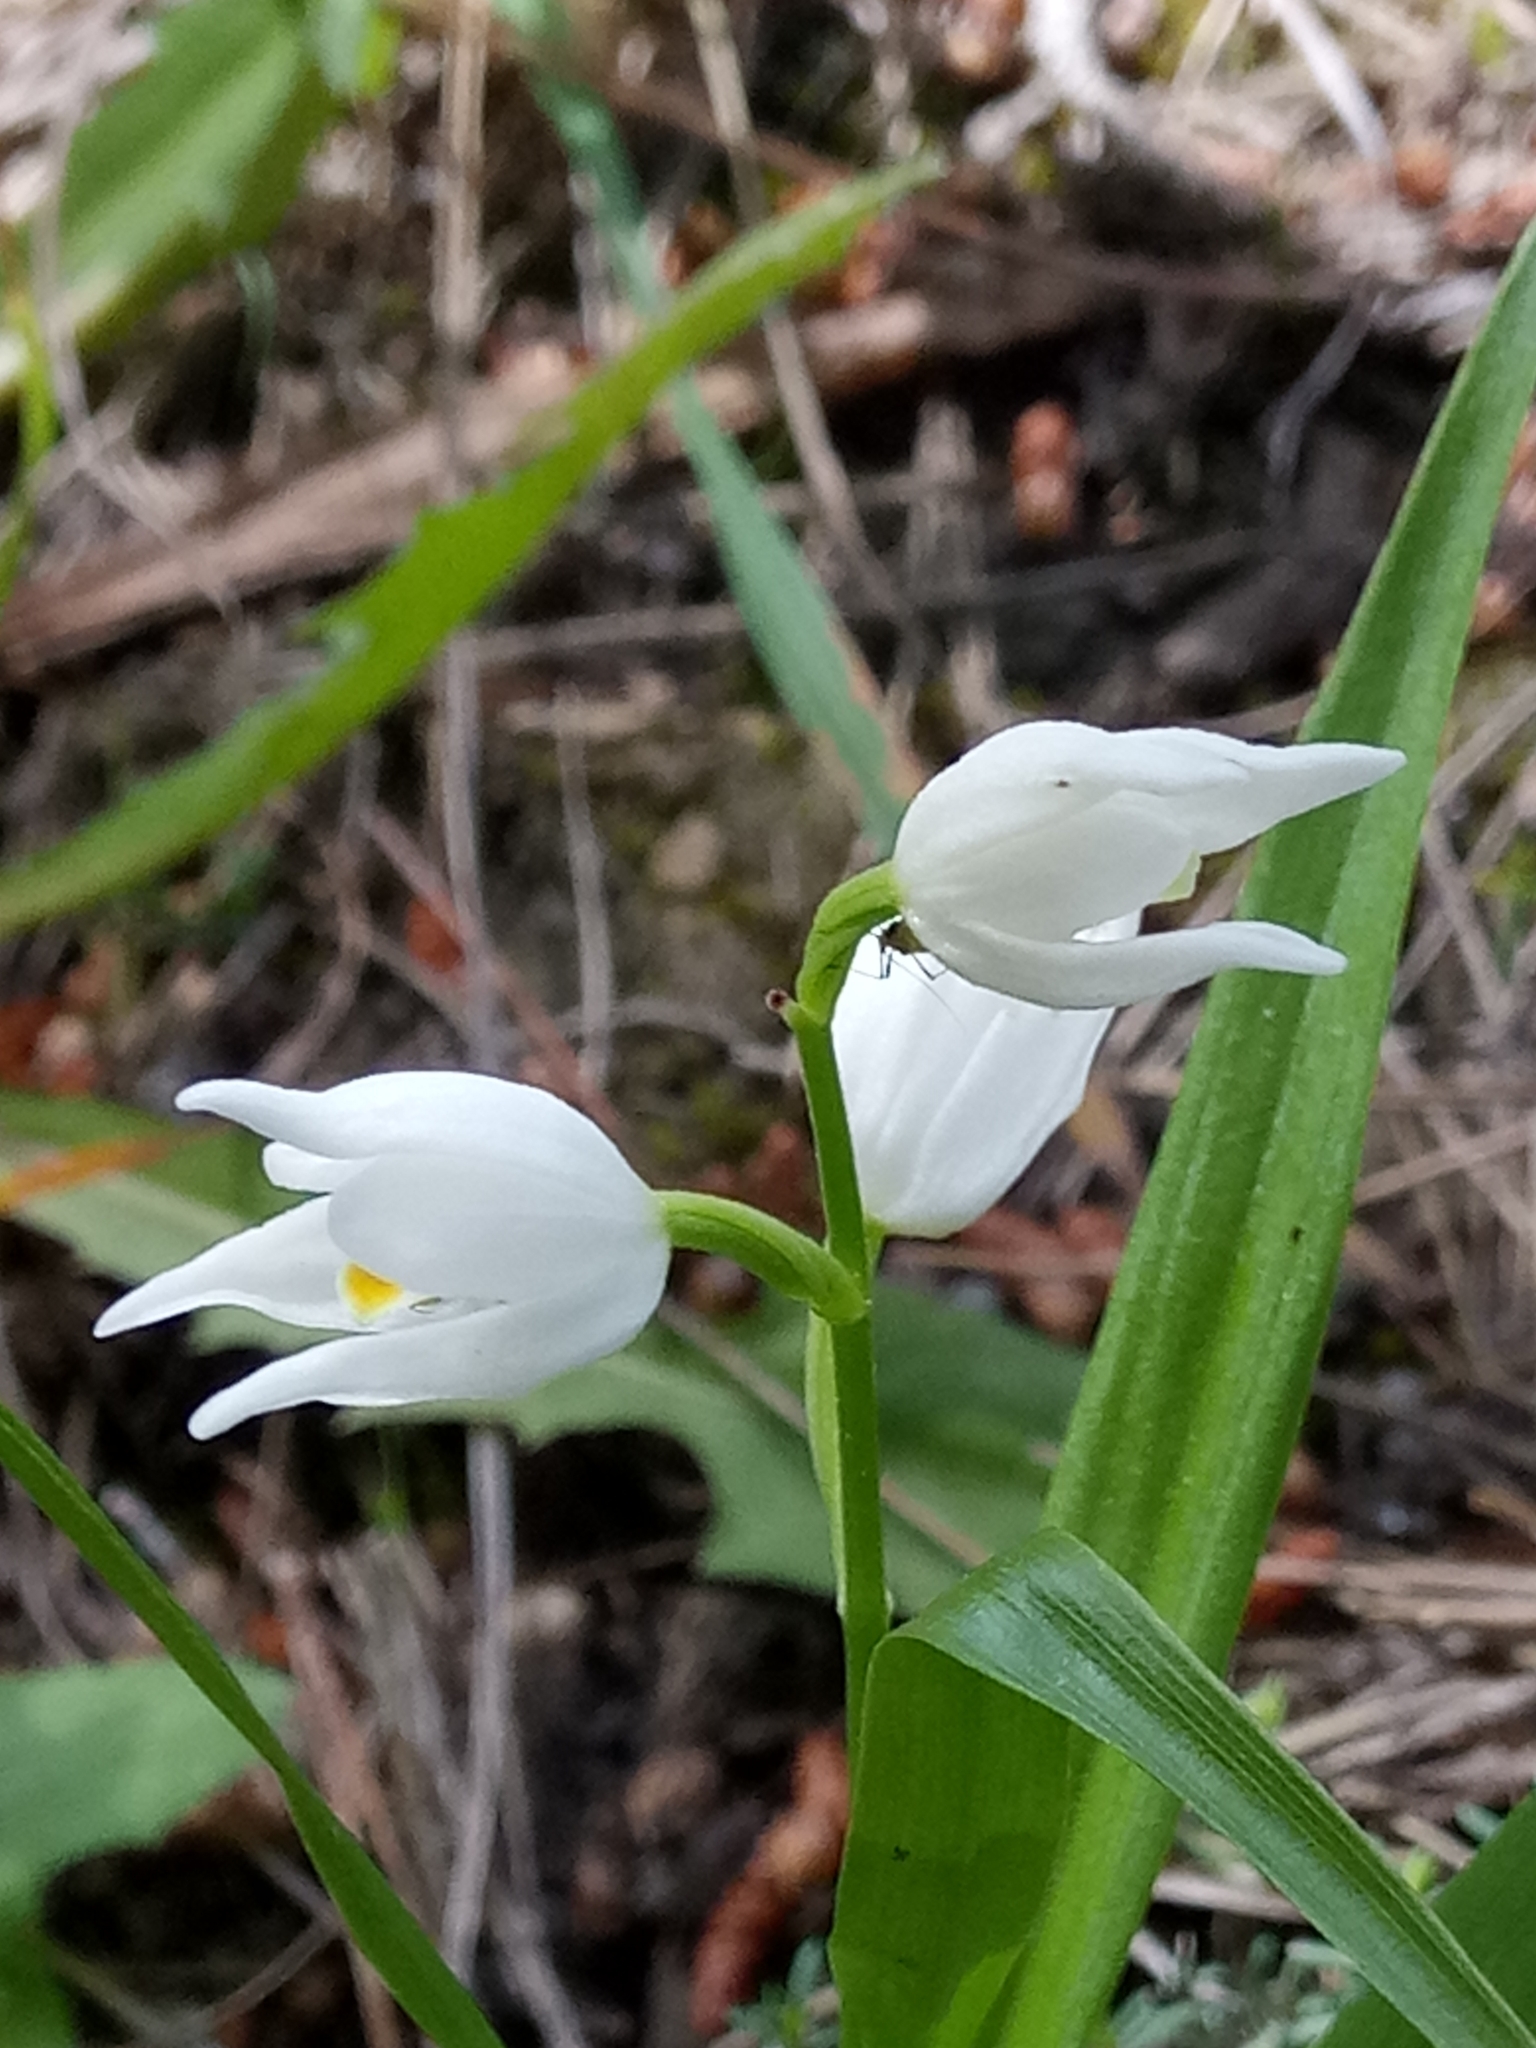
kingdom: Plantae
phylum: Tracheophyta
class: Liliopsida
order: Asparagales
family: Orchidaceae
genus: Cephalanthera
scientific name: Cephalanthera longifolia
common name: Narrow-leaved helleborine
